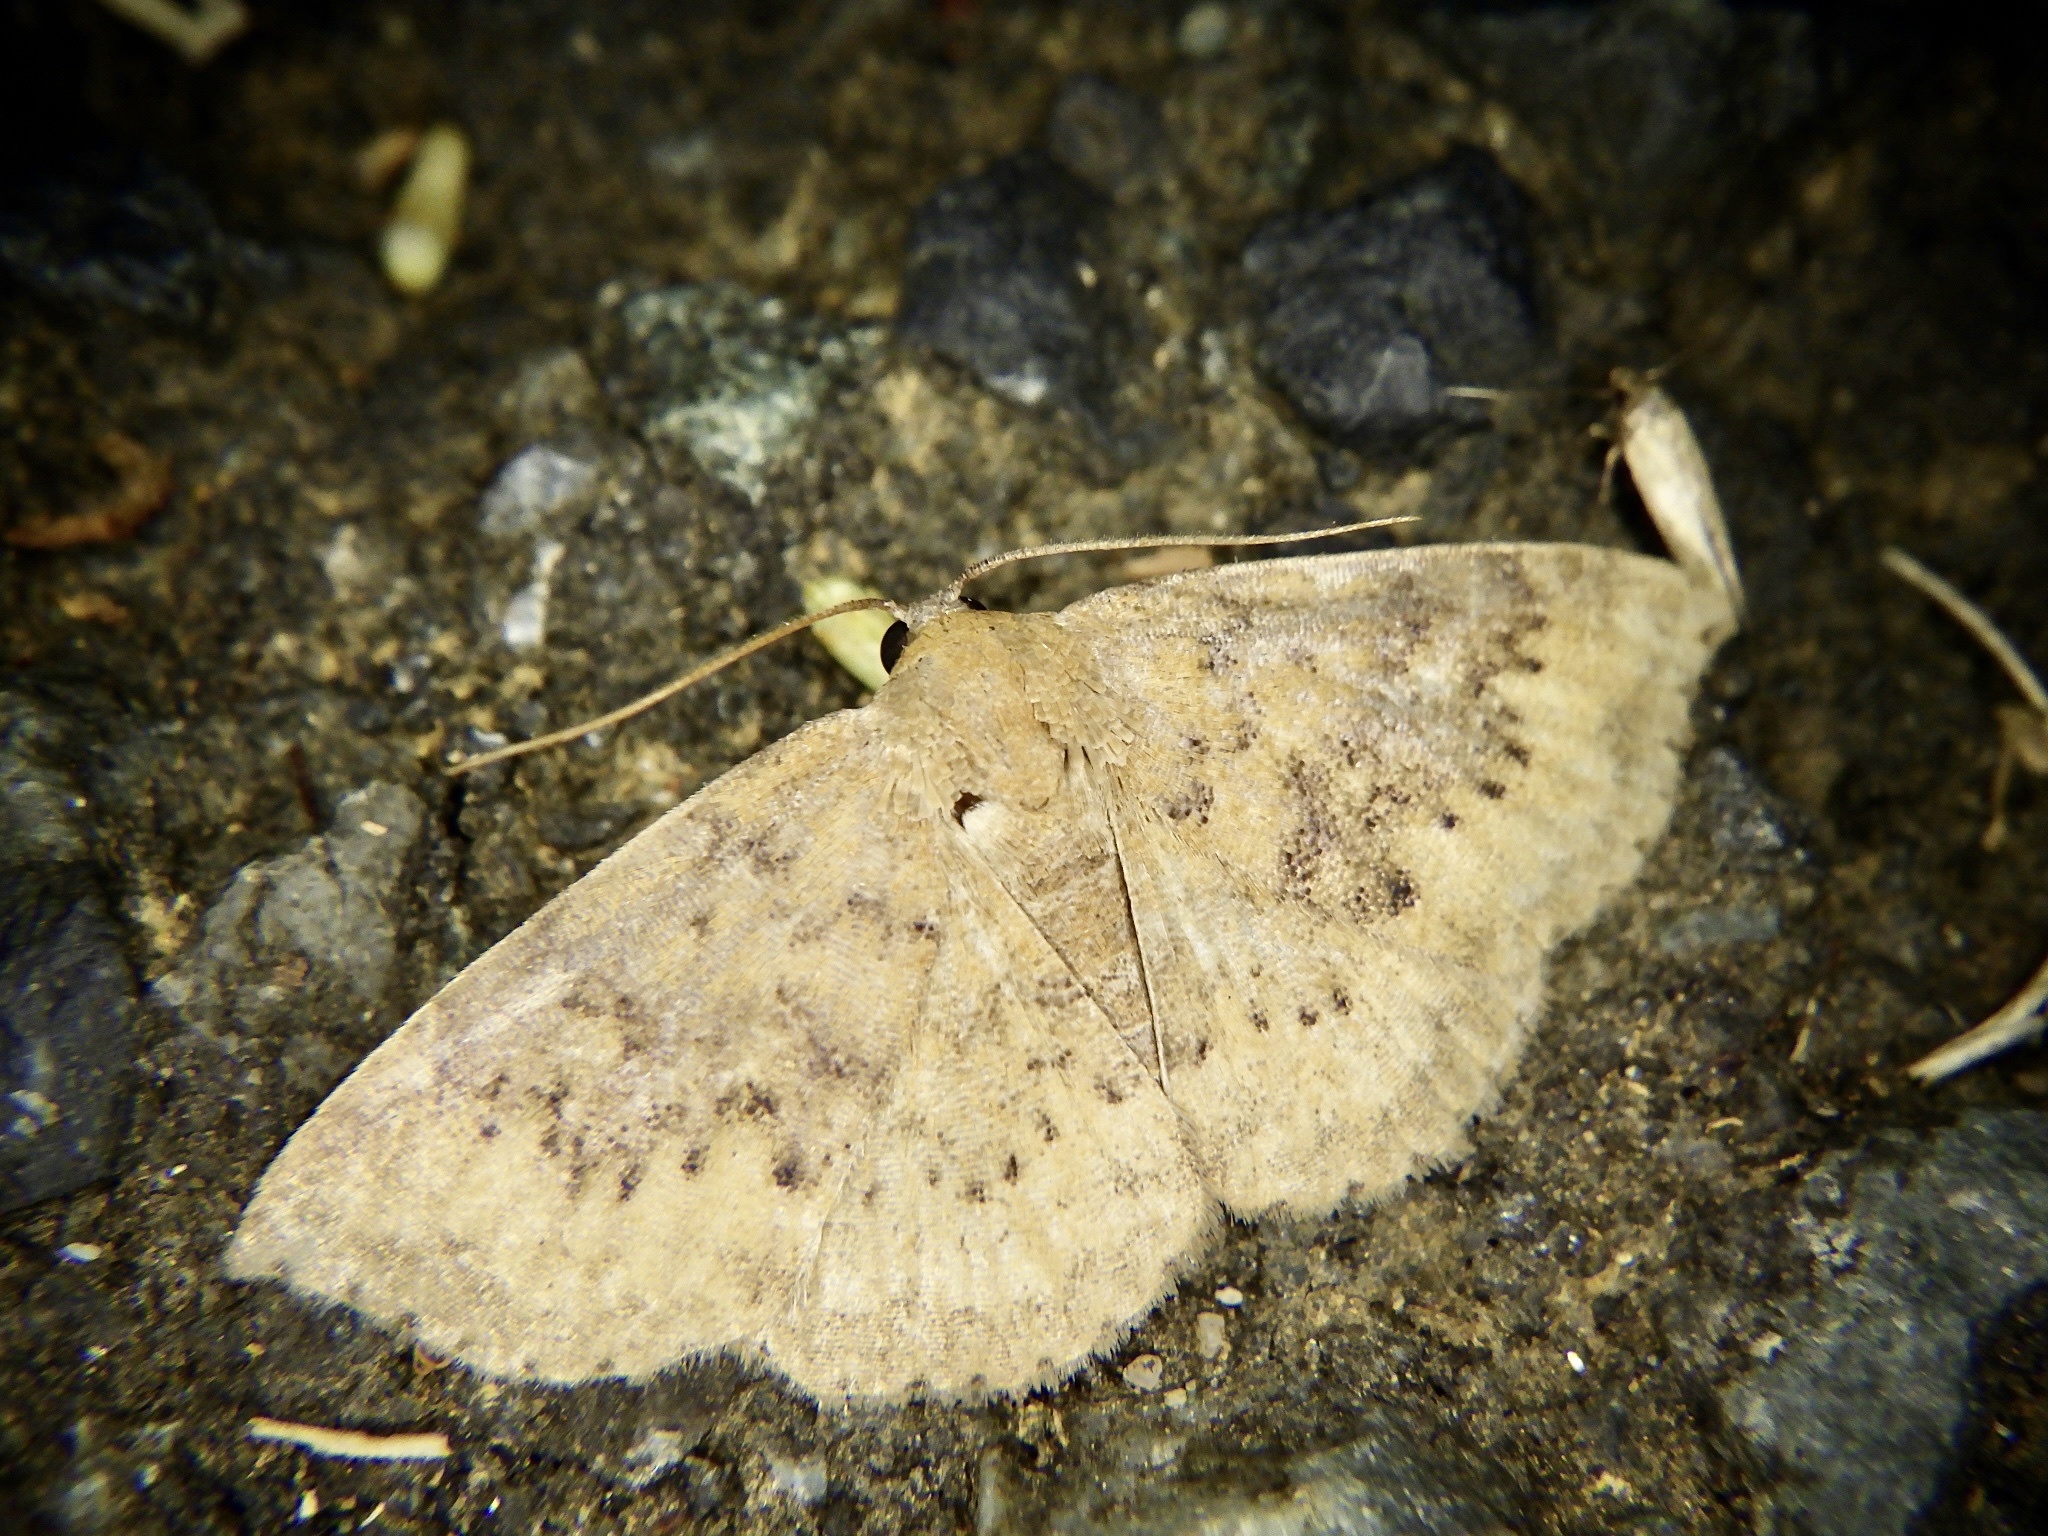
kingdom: Animalia
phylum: Arthropoda
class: Insecta
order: Lepidoptera
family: Noctuidae
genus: Oruza
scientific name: Oruza brunnea
